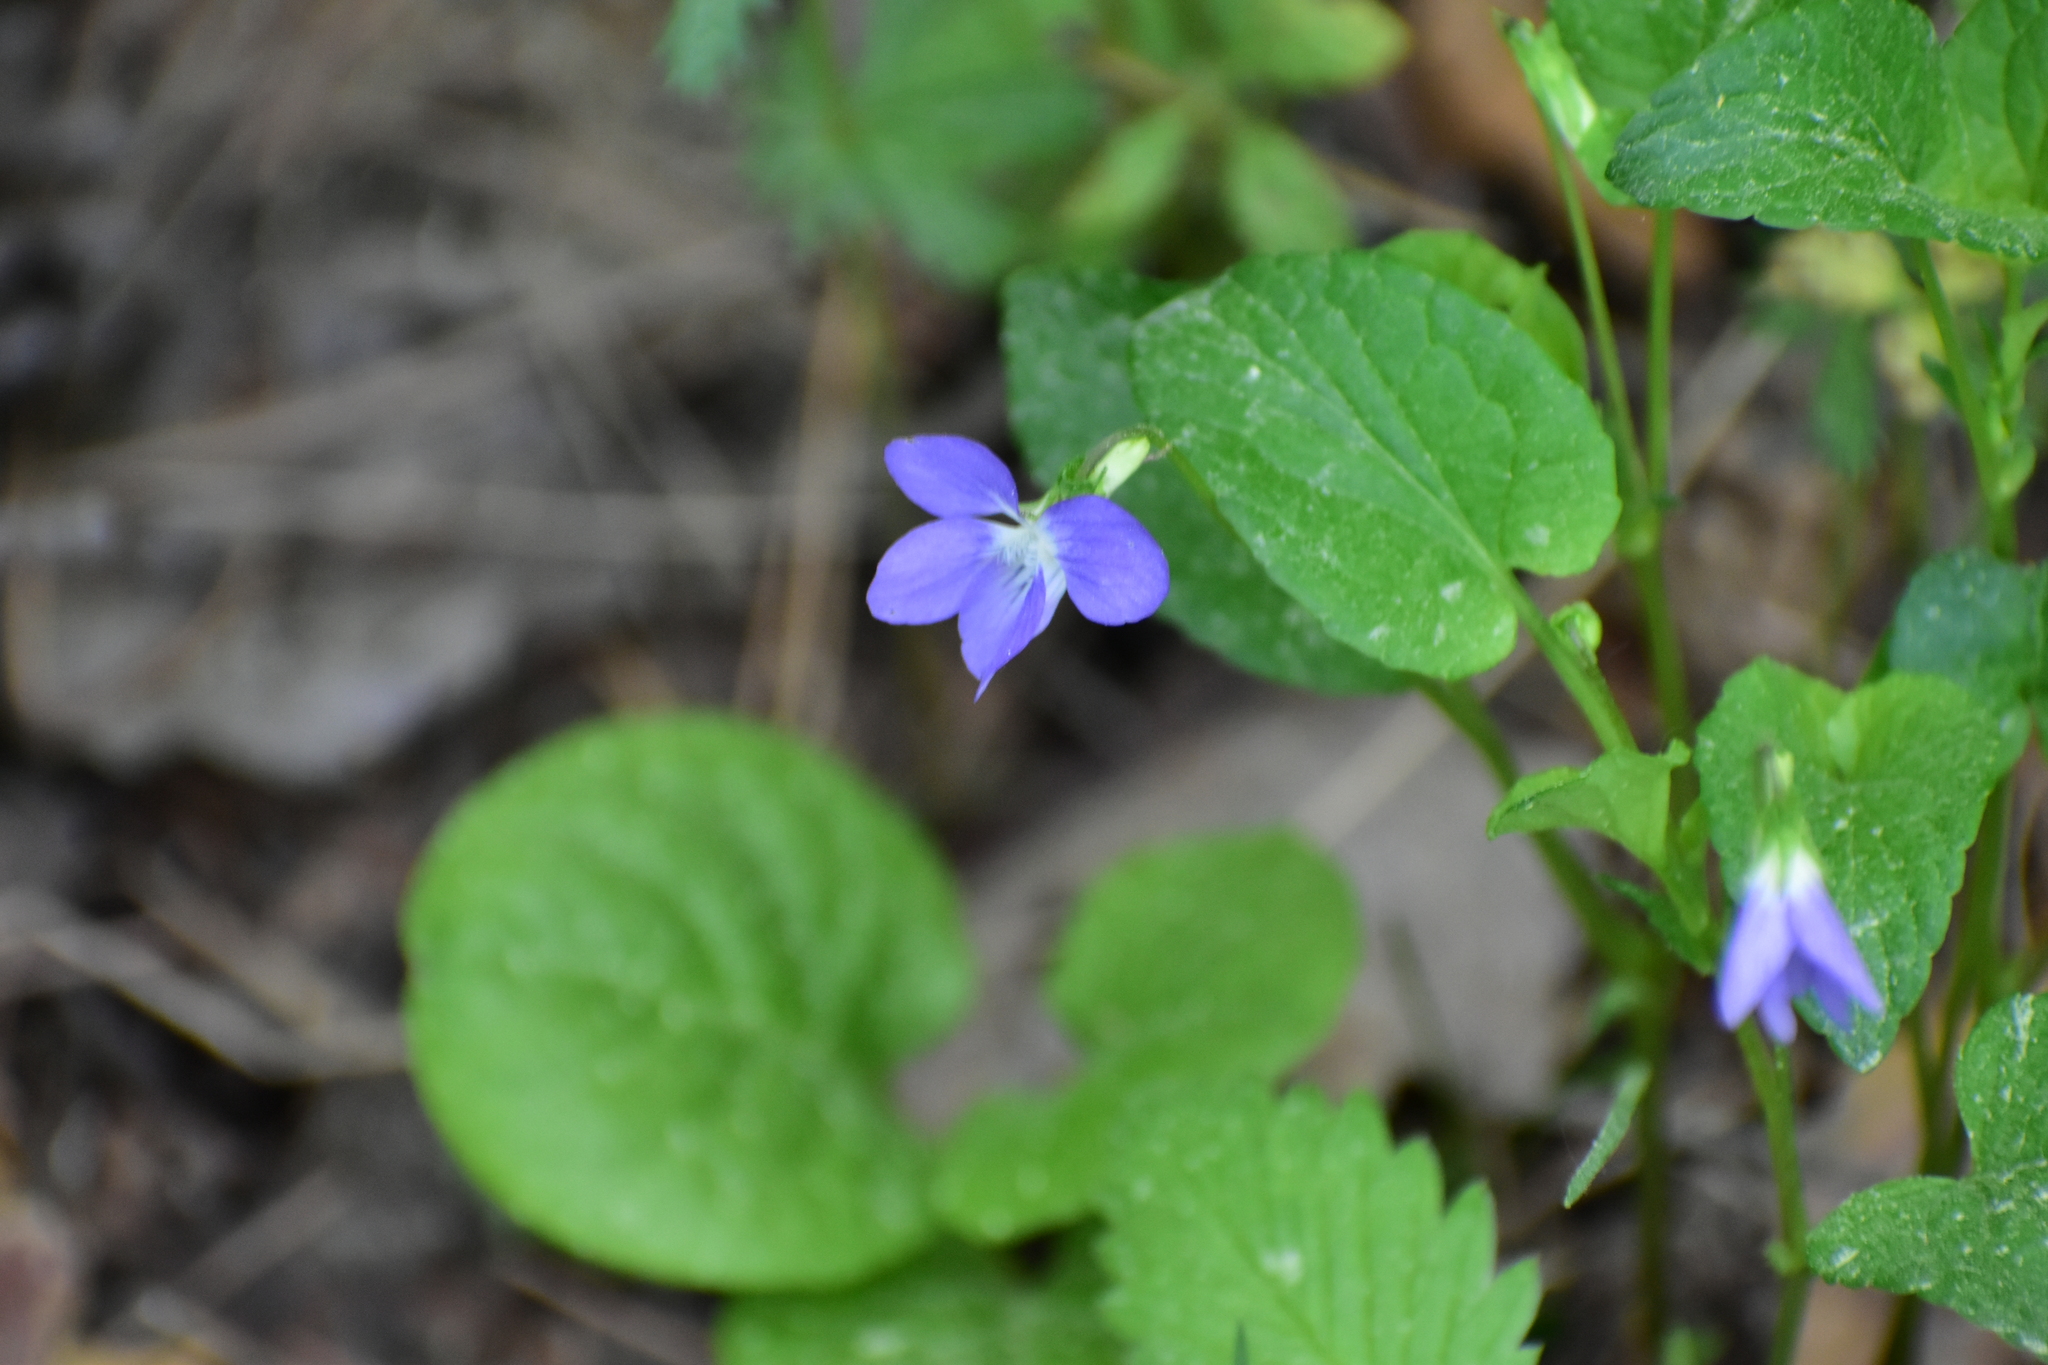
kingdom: Plantae
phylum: Tracheophyta
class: Magnoliopsida
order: Malpighiales
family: Violaceae
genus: Viola
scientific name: Viola canina
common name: Heath dog-violet
